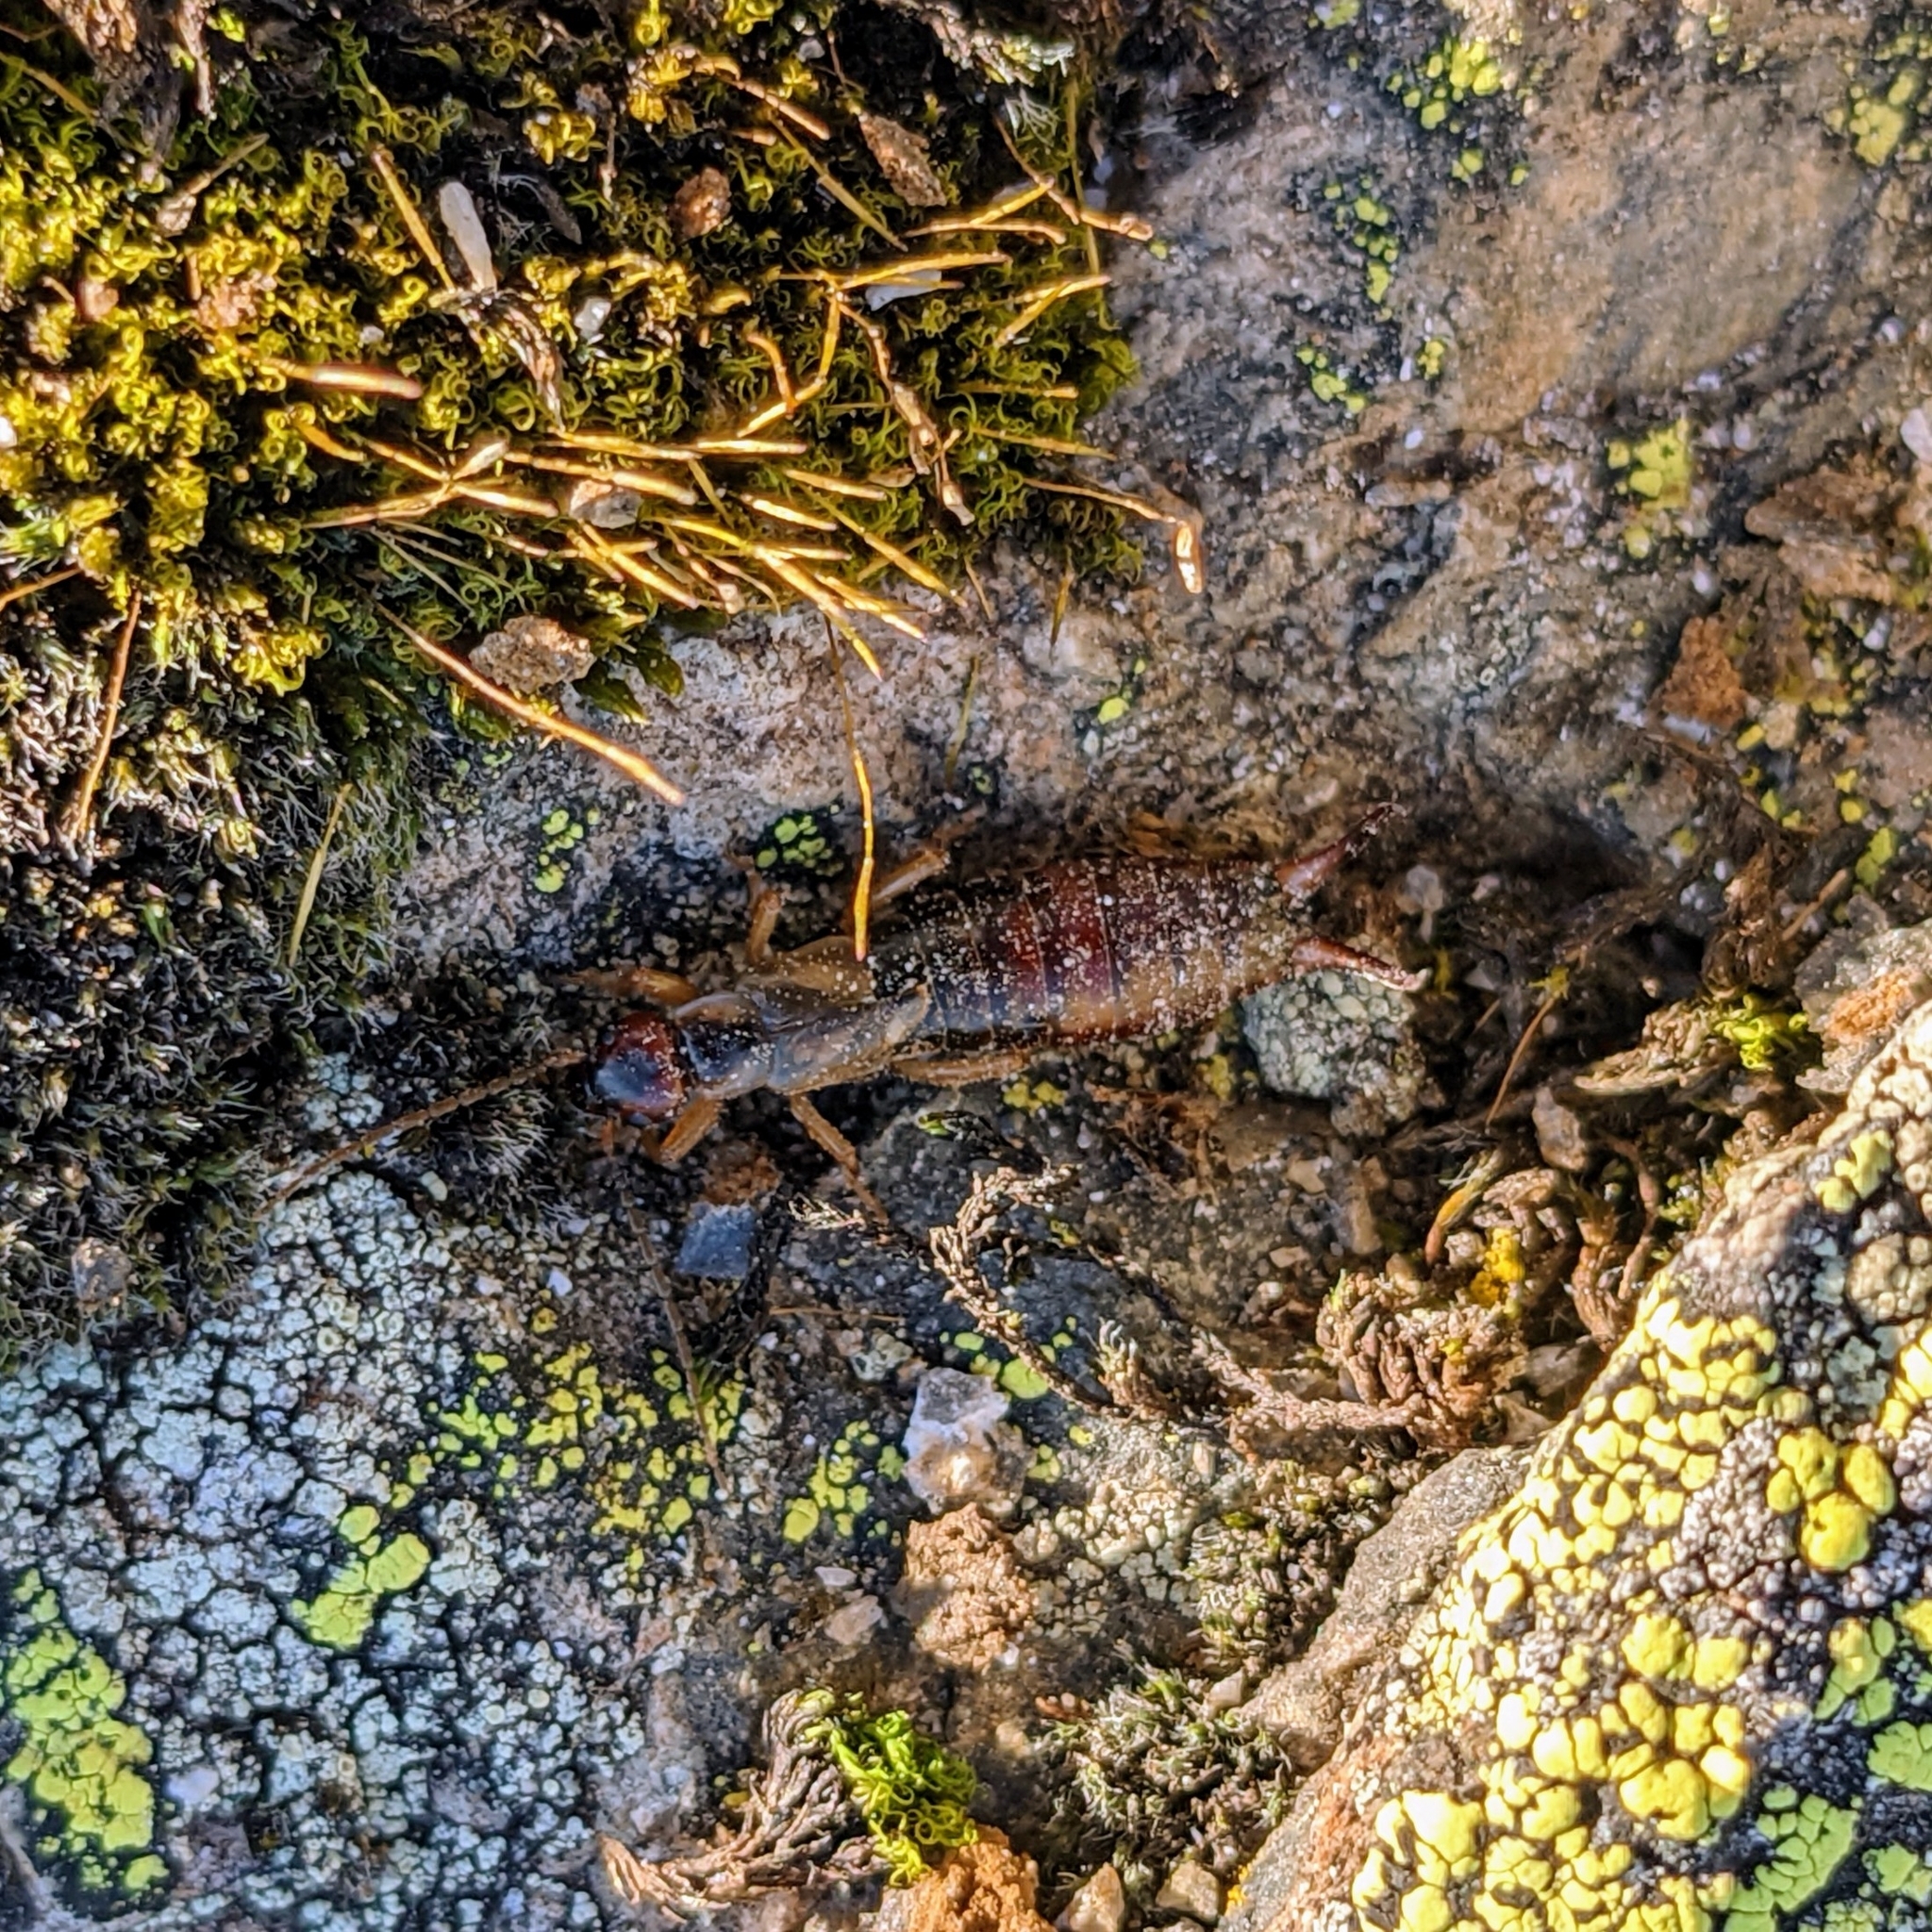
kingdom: Animalia
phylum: Arthropoda
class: Insecta
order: Dermaptera
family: Forficulidae
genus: Forficula
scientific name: Forficula
